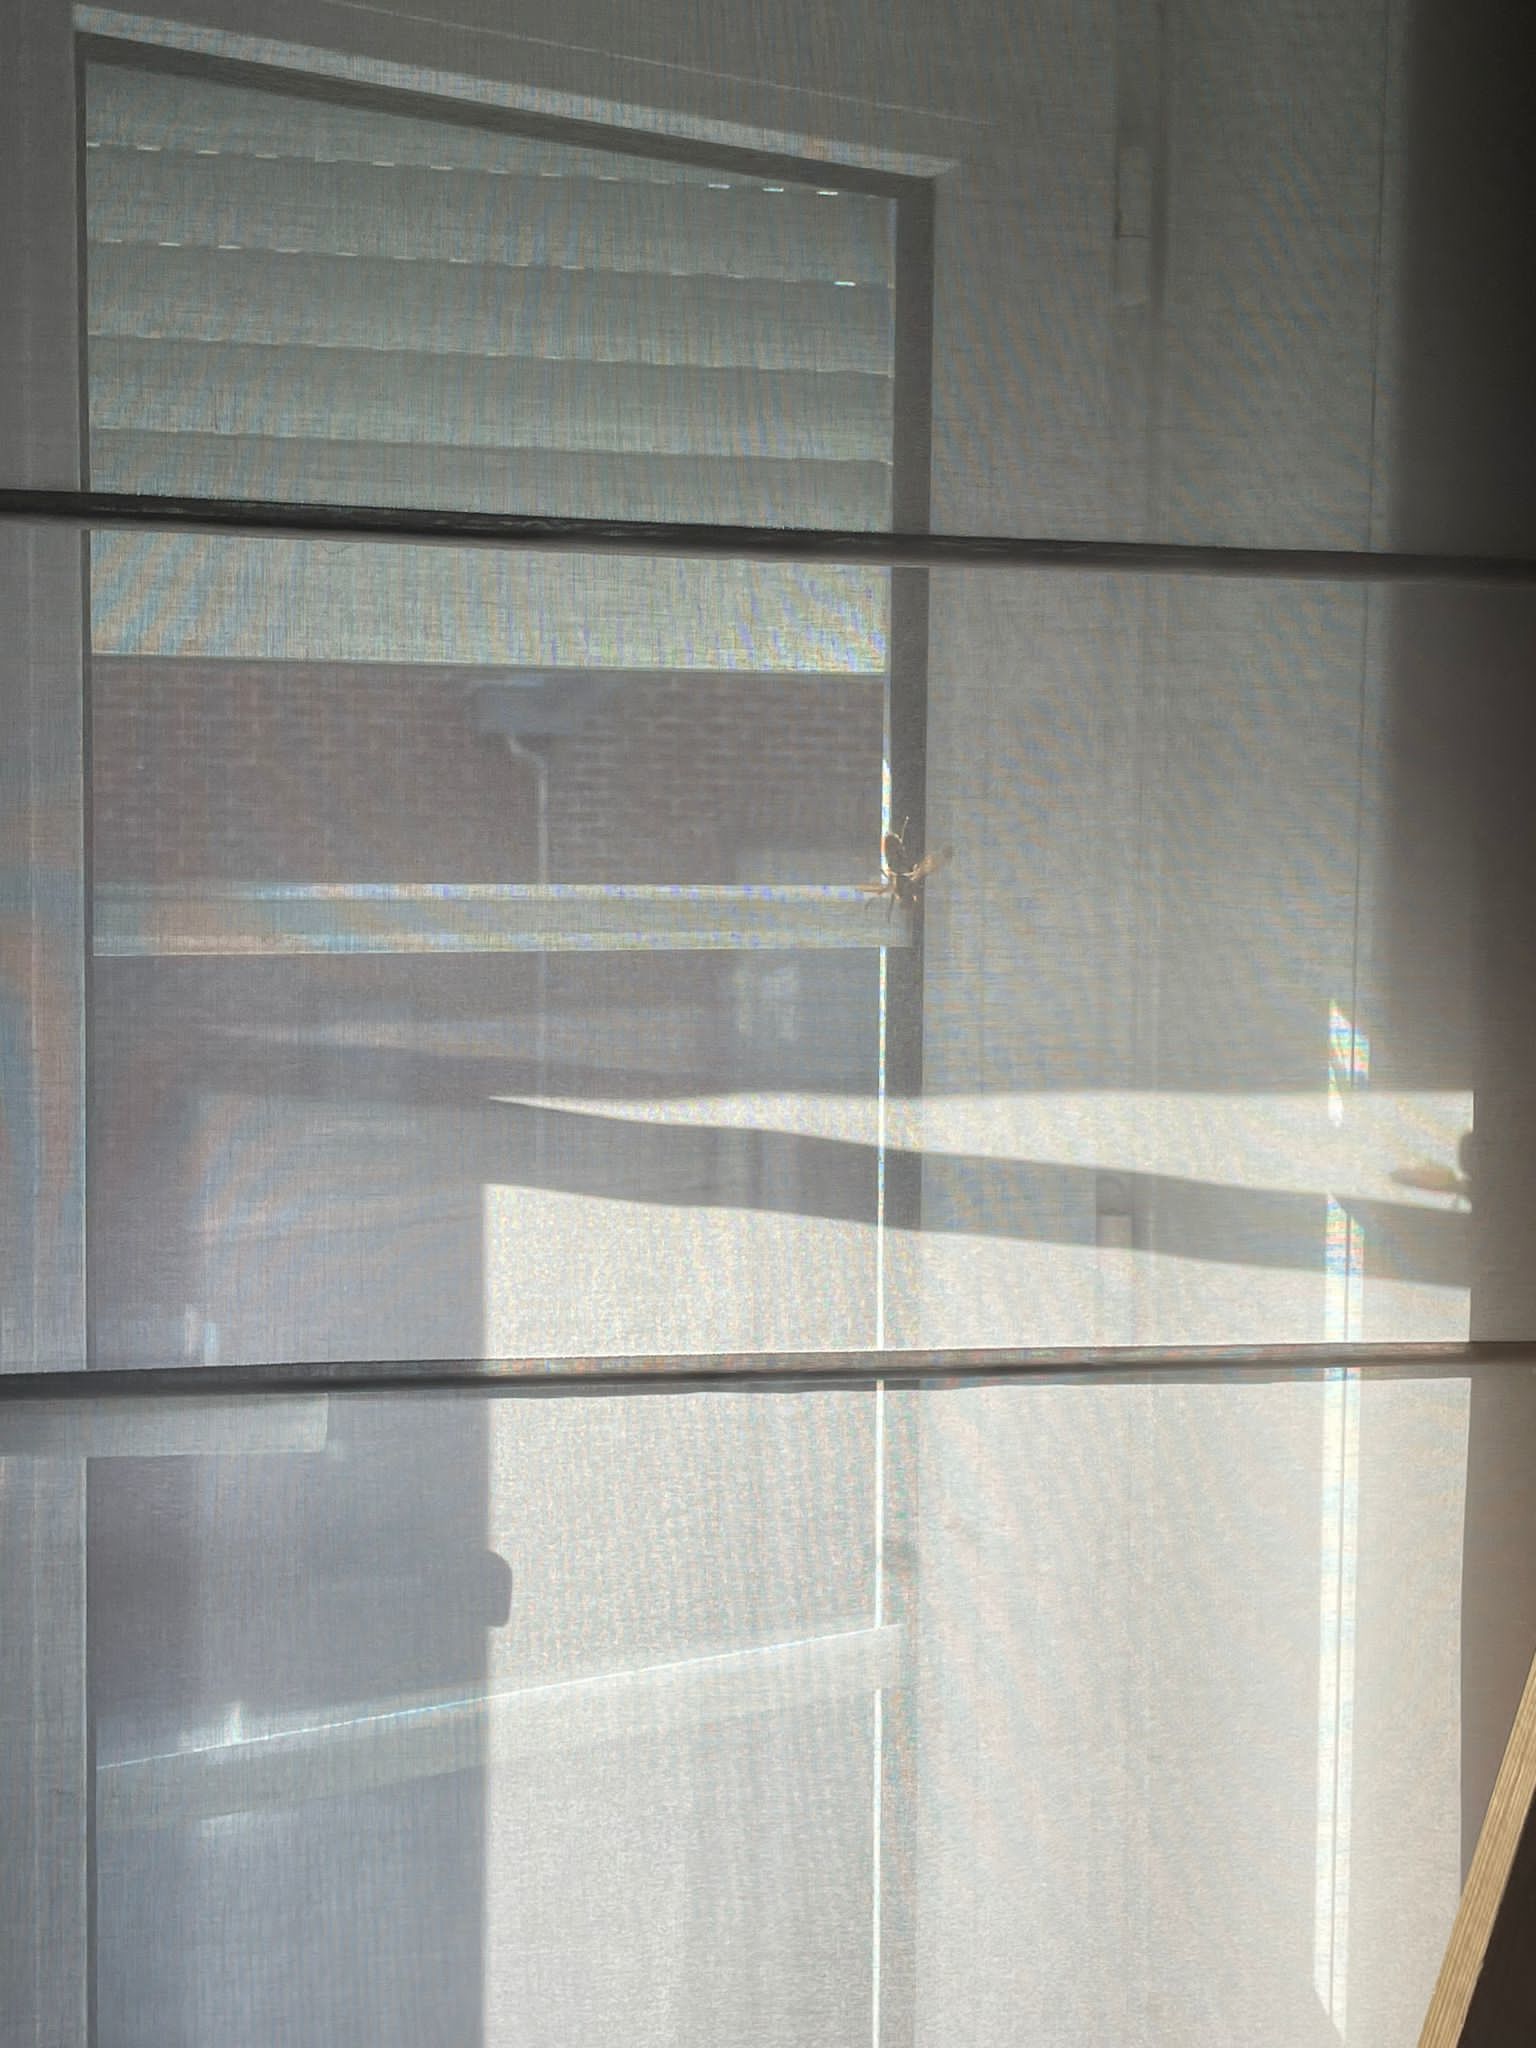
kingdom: Animalia
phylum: Arthropoda
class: Insecta
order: Hymenoptera
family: Vespidae
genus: Vespa
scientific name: Vespa crabro
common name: Hornet
